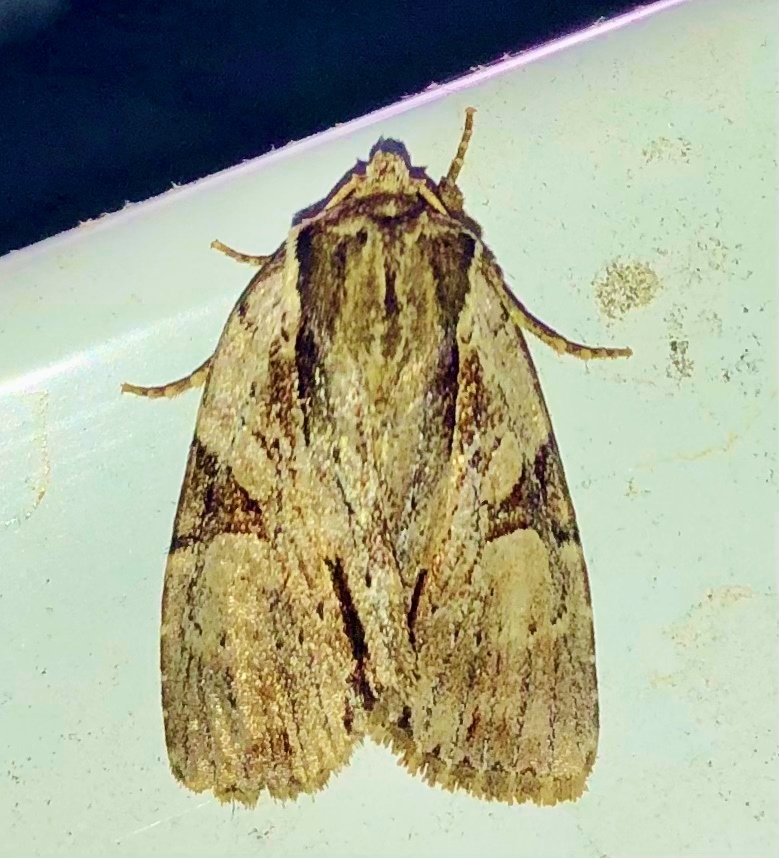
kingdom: Animalia
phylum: Arthropoda
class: Insecta
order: Lepidoptera
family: Noctuidae
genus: Achatia
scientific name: Achatia Morrisonia triangula
